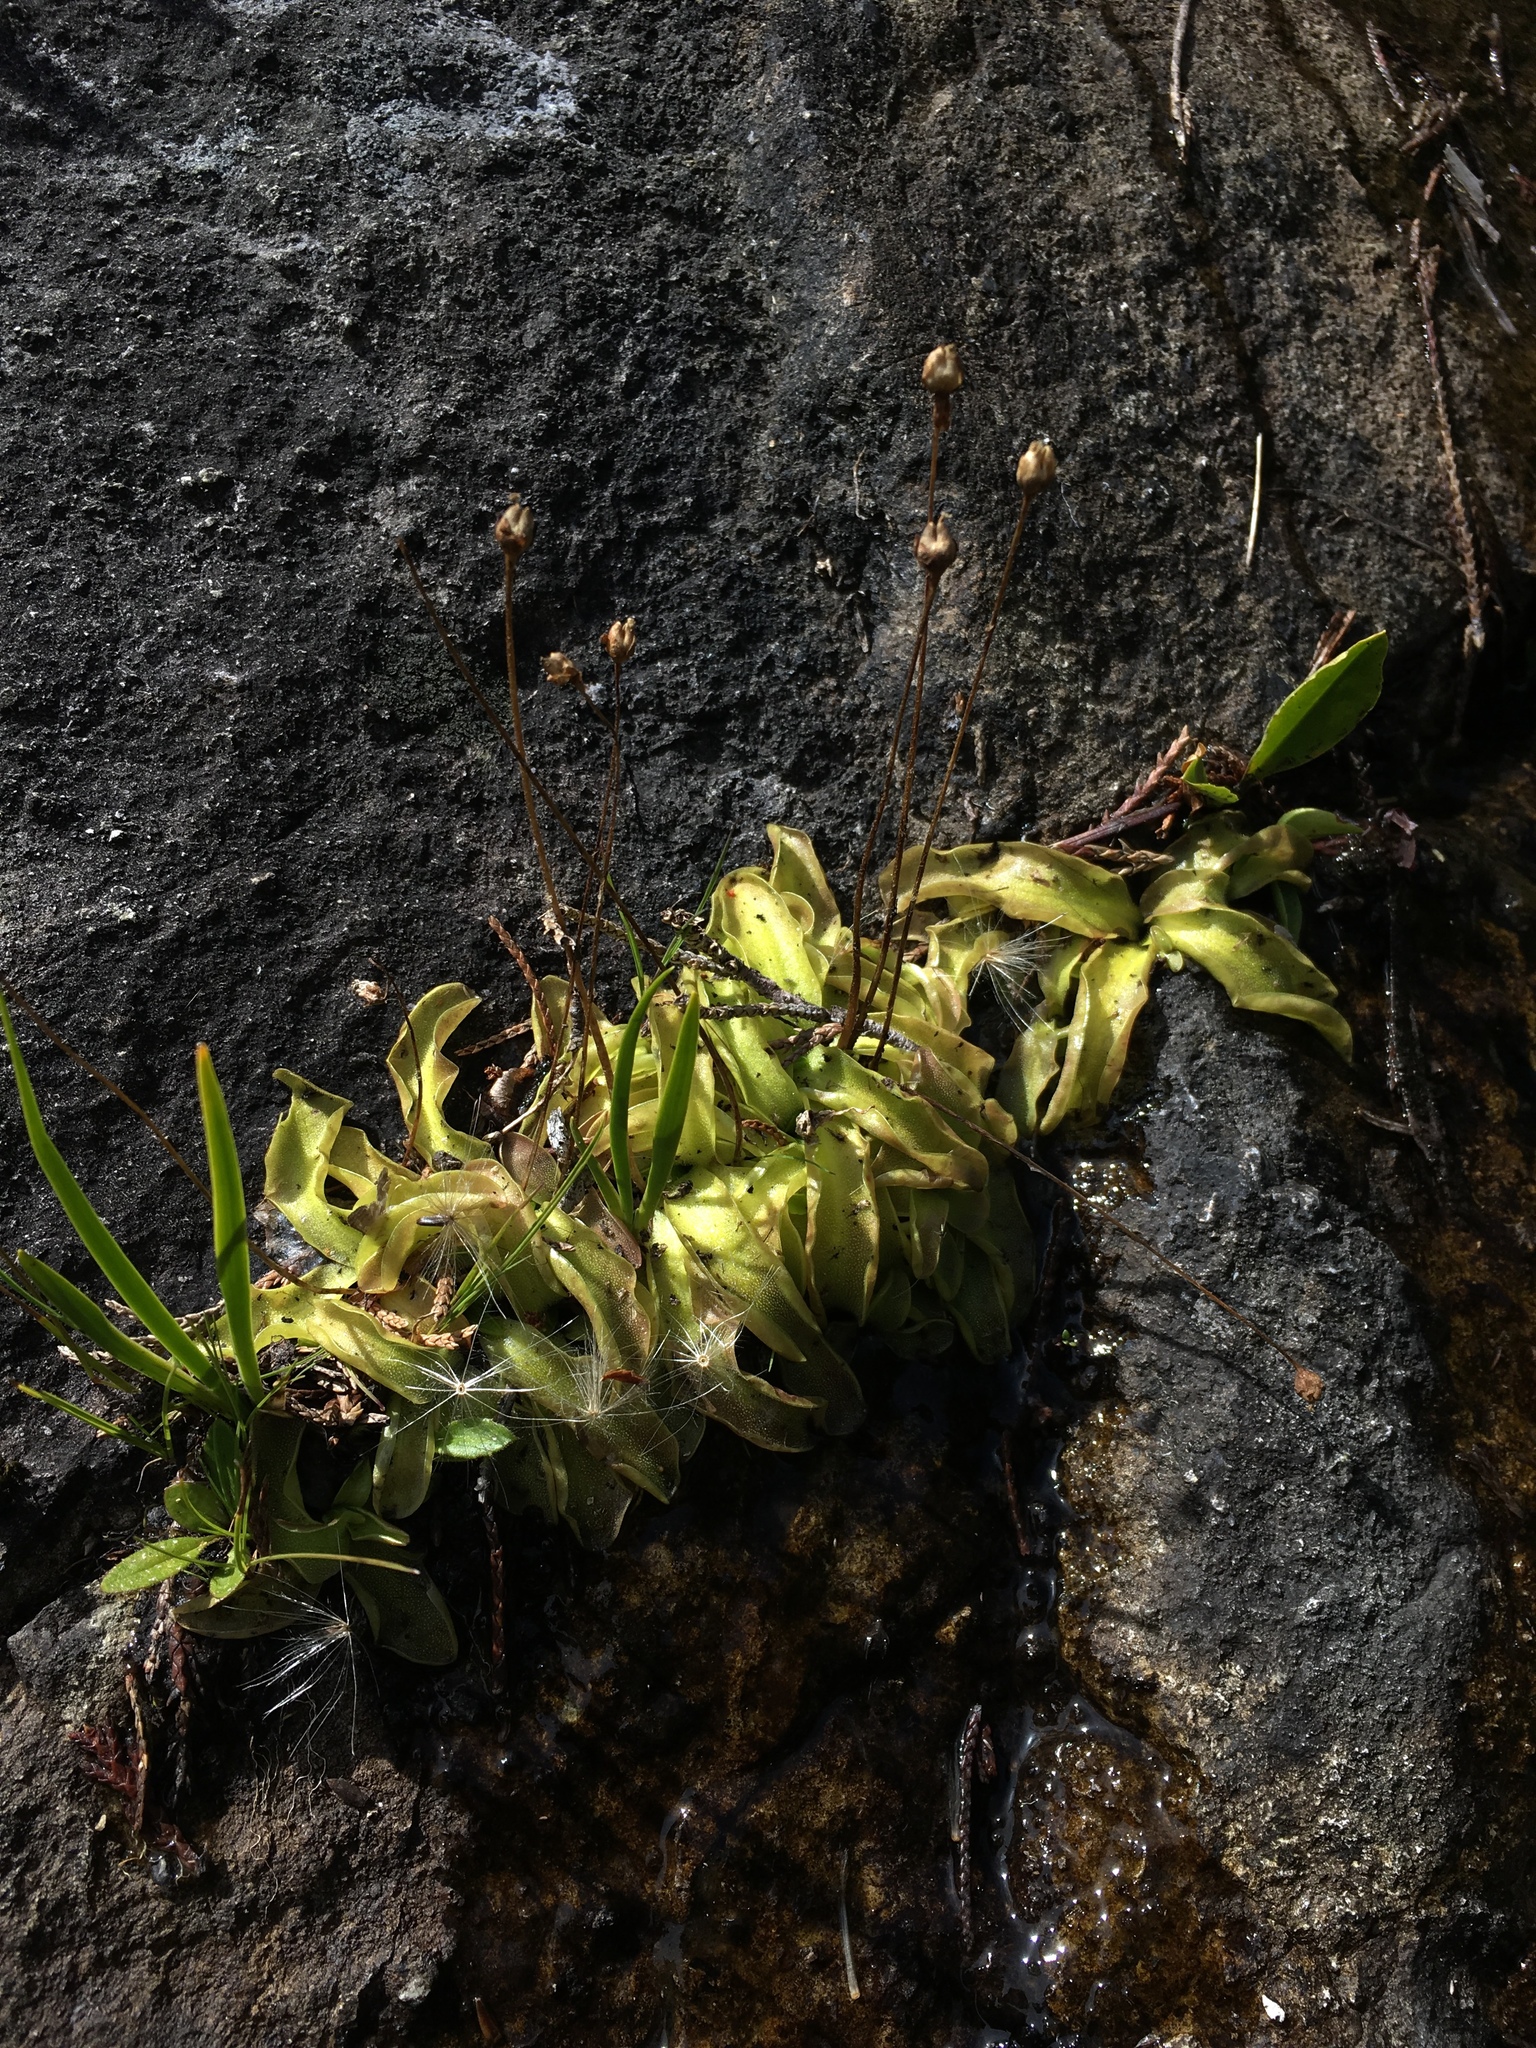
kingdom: Plantae
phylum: Tracheophyta
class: Magnoliopsida
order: Lamiales
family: Lentibulariaceae
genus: Pinguicula
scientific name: Pinguicula macroceras
